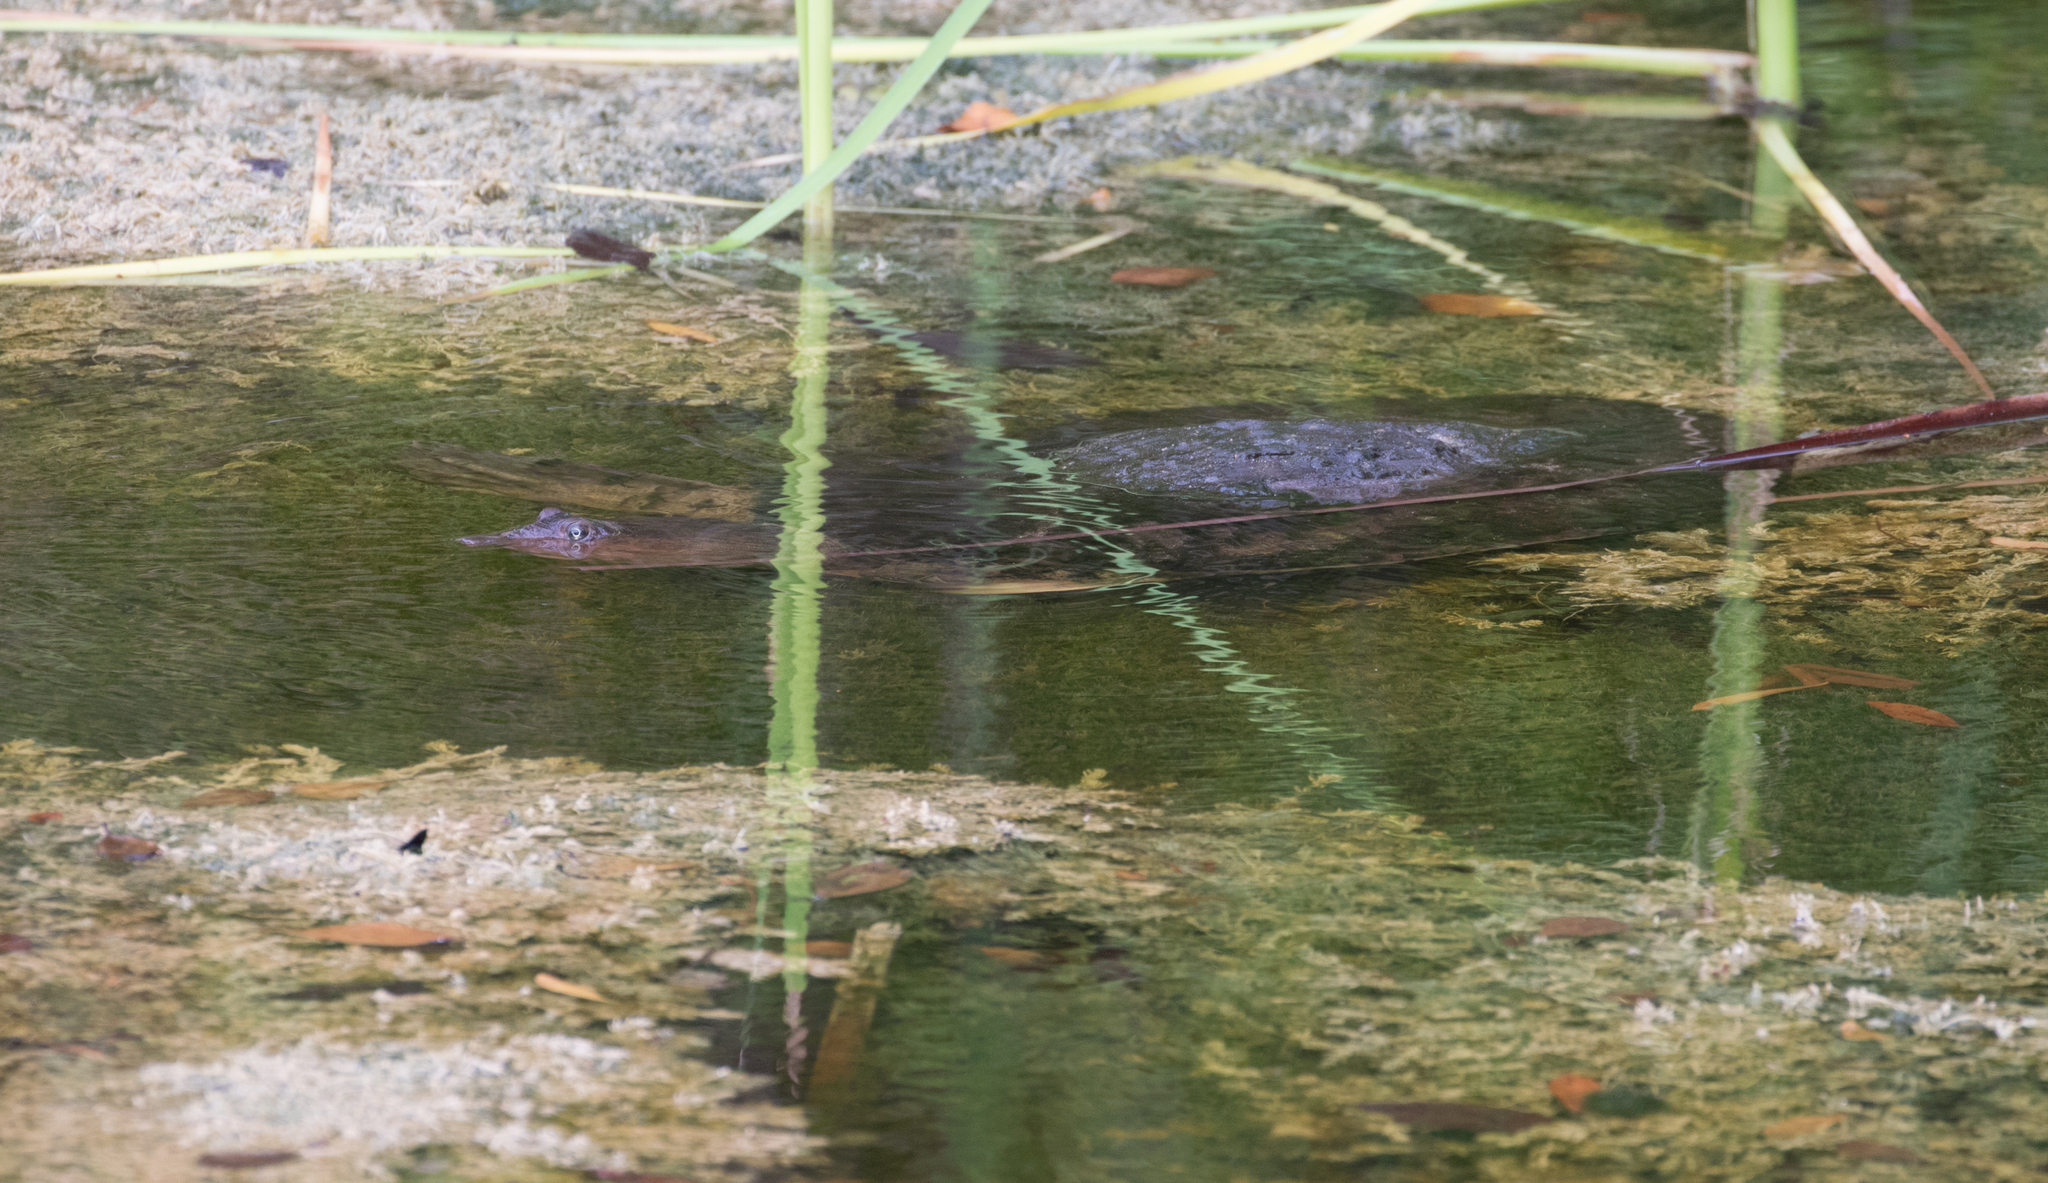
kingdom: Animalia
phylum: Chordata
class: Testudines
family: Trionychidae
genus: Apalone
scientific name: Apalone ferox
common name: Florida softshell turtle
